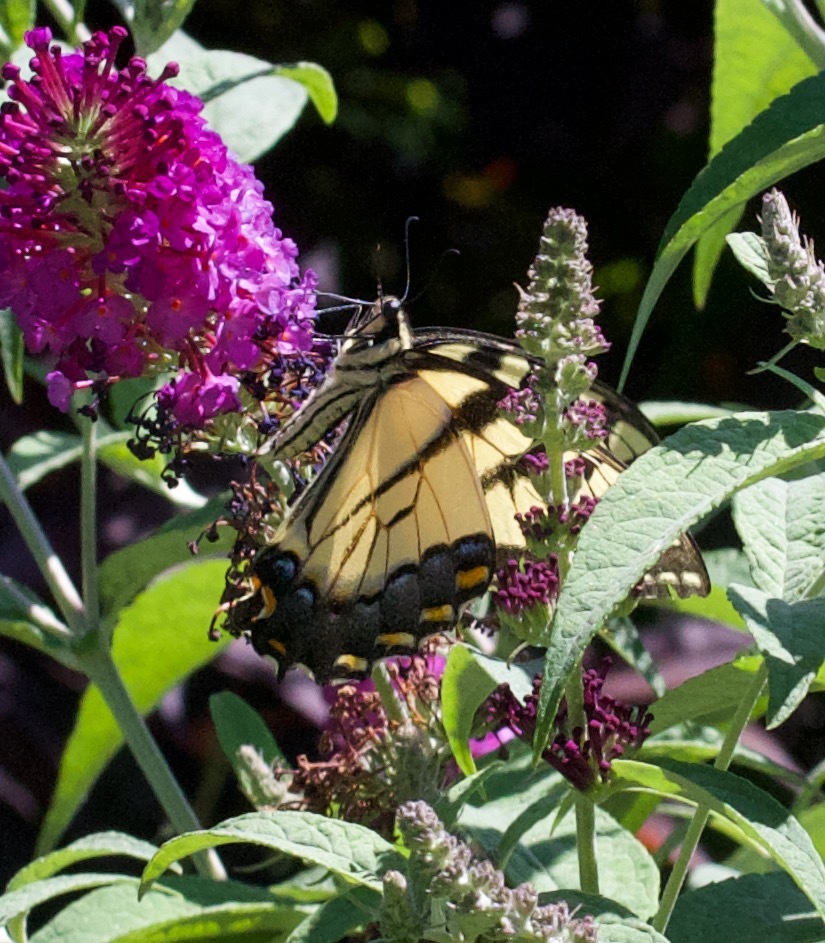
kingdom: Animalia
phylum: Arthropoda
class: Insecta
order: Lepidoptera
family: Papilionidae
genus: Pterourus
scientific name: Pterourus
